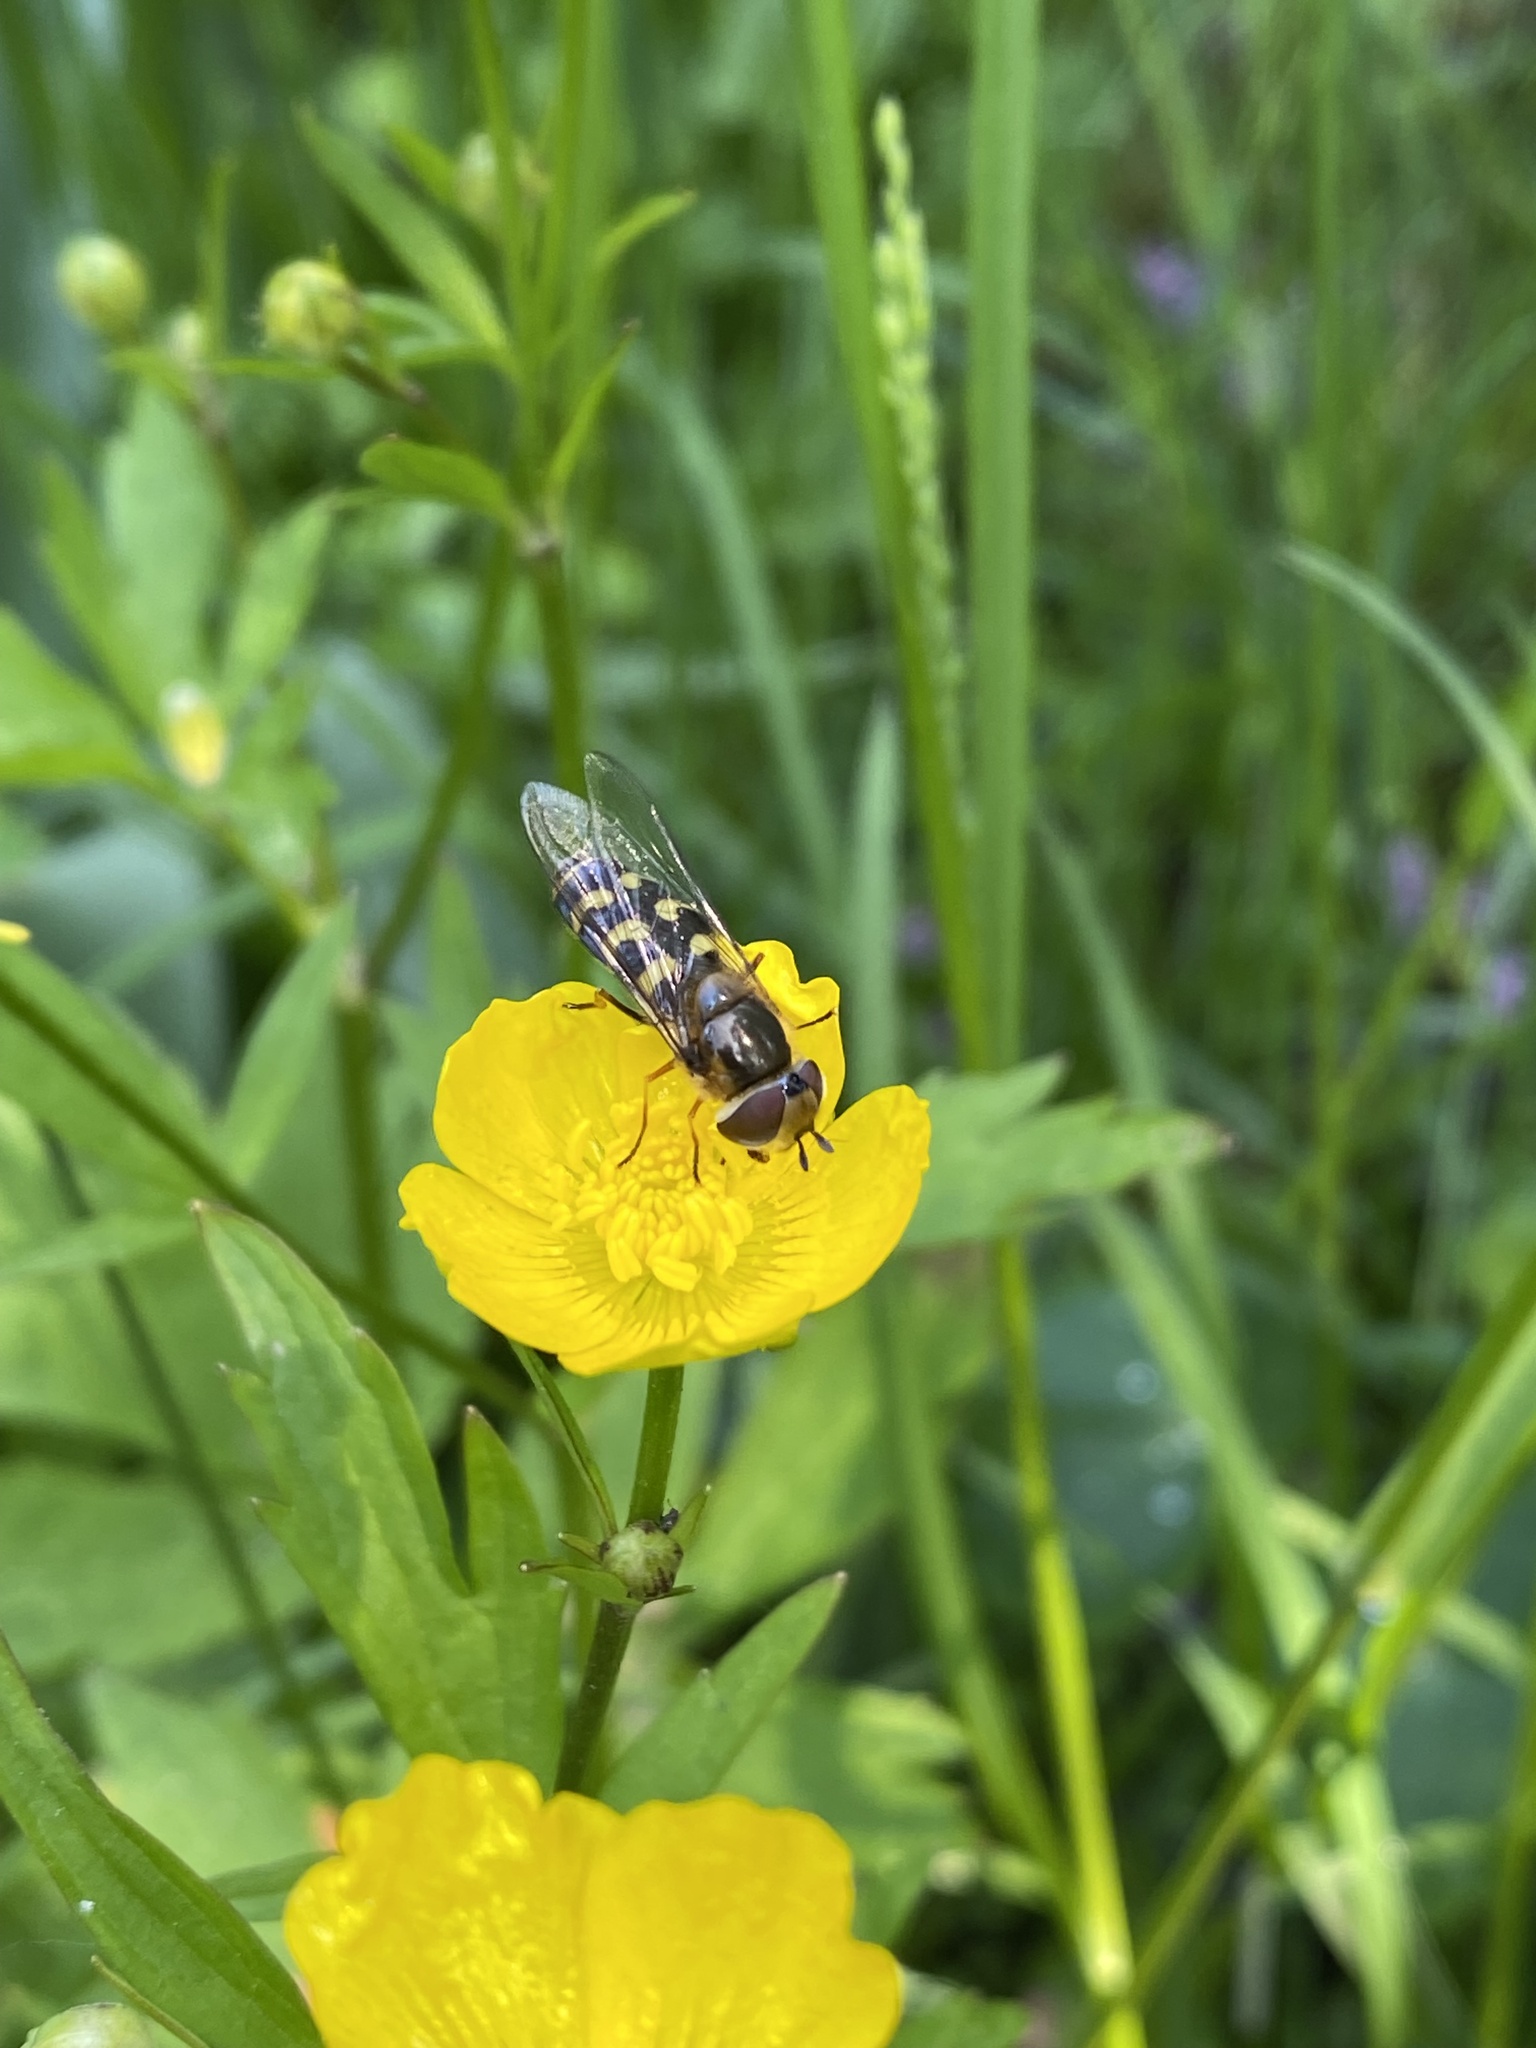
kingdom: Animalia
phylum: Arthropoda
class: Insecta
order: Diptera
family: Syrphidae
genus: Scaeva
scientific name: Scaeva selenitica
